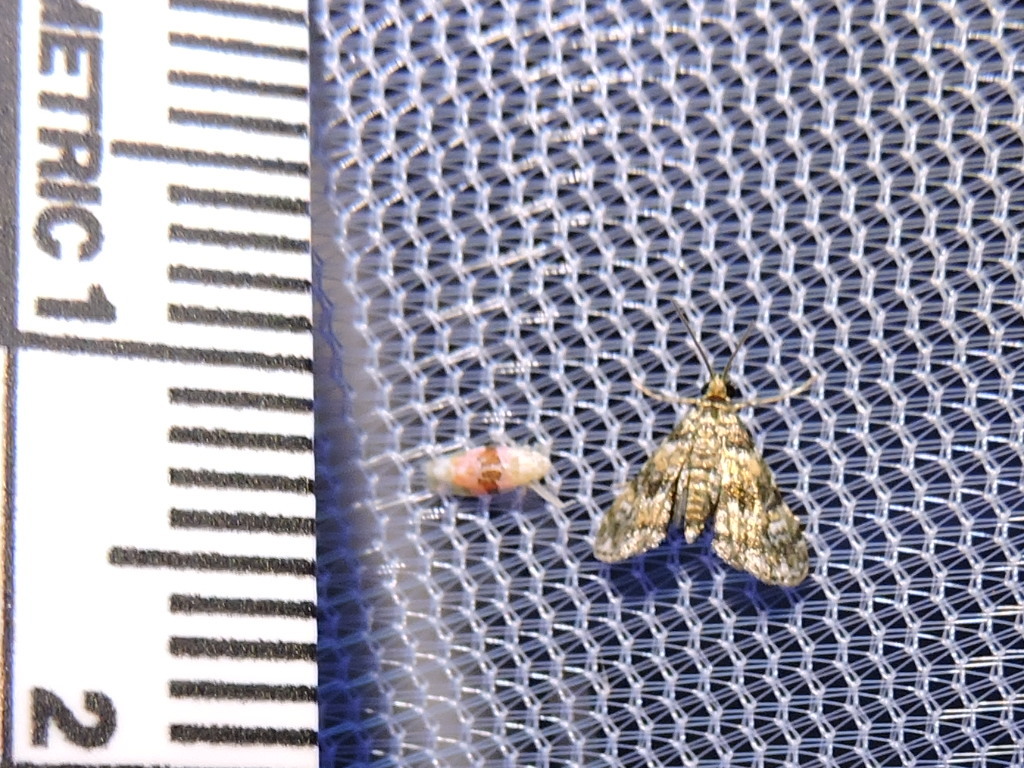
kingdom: Animalia
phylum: Arthropoda
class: Insecta
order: Lepidoptera
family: Crambidae
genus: Elophila
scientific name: Elophila obliteralis
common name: Waterlily leafcutter moth
